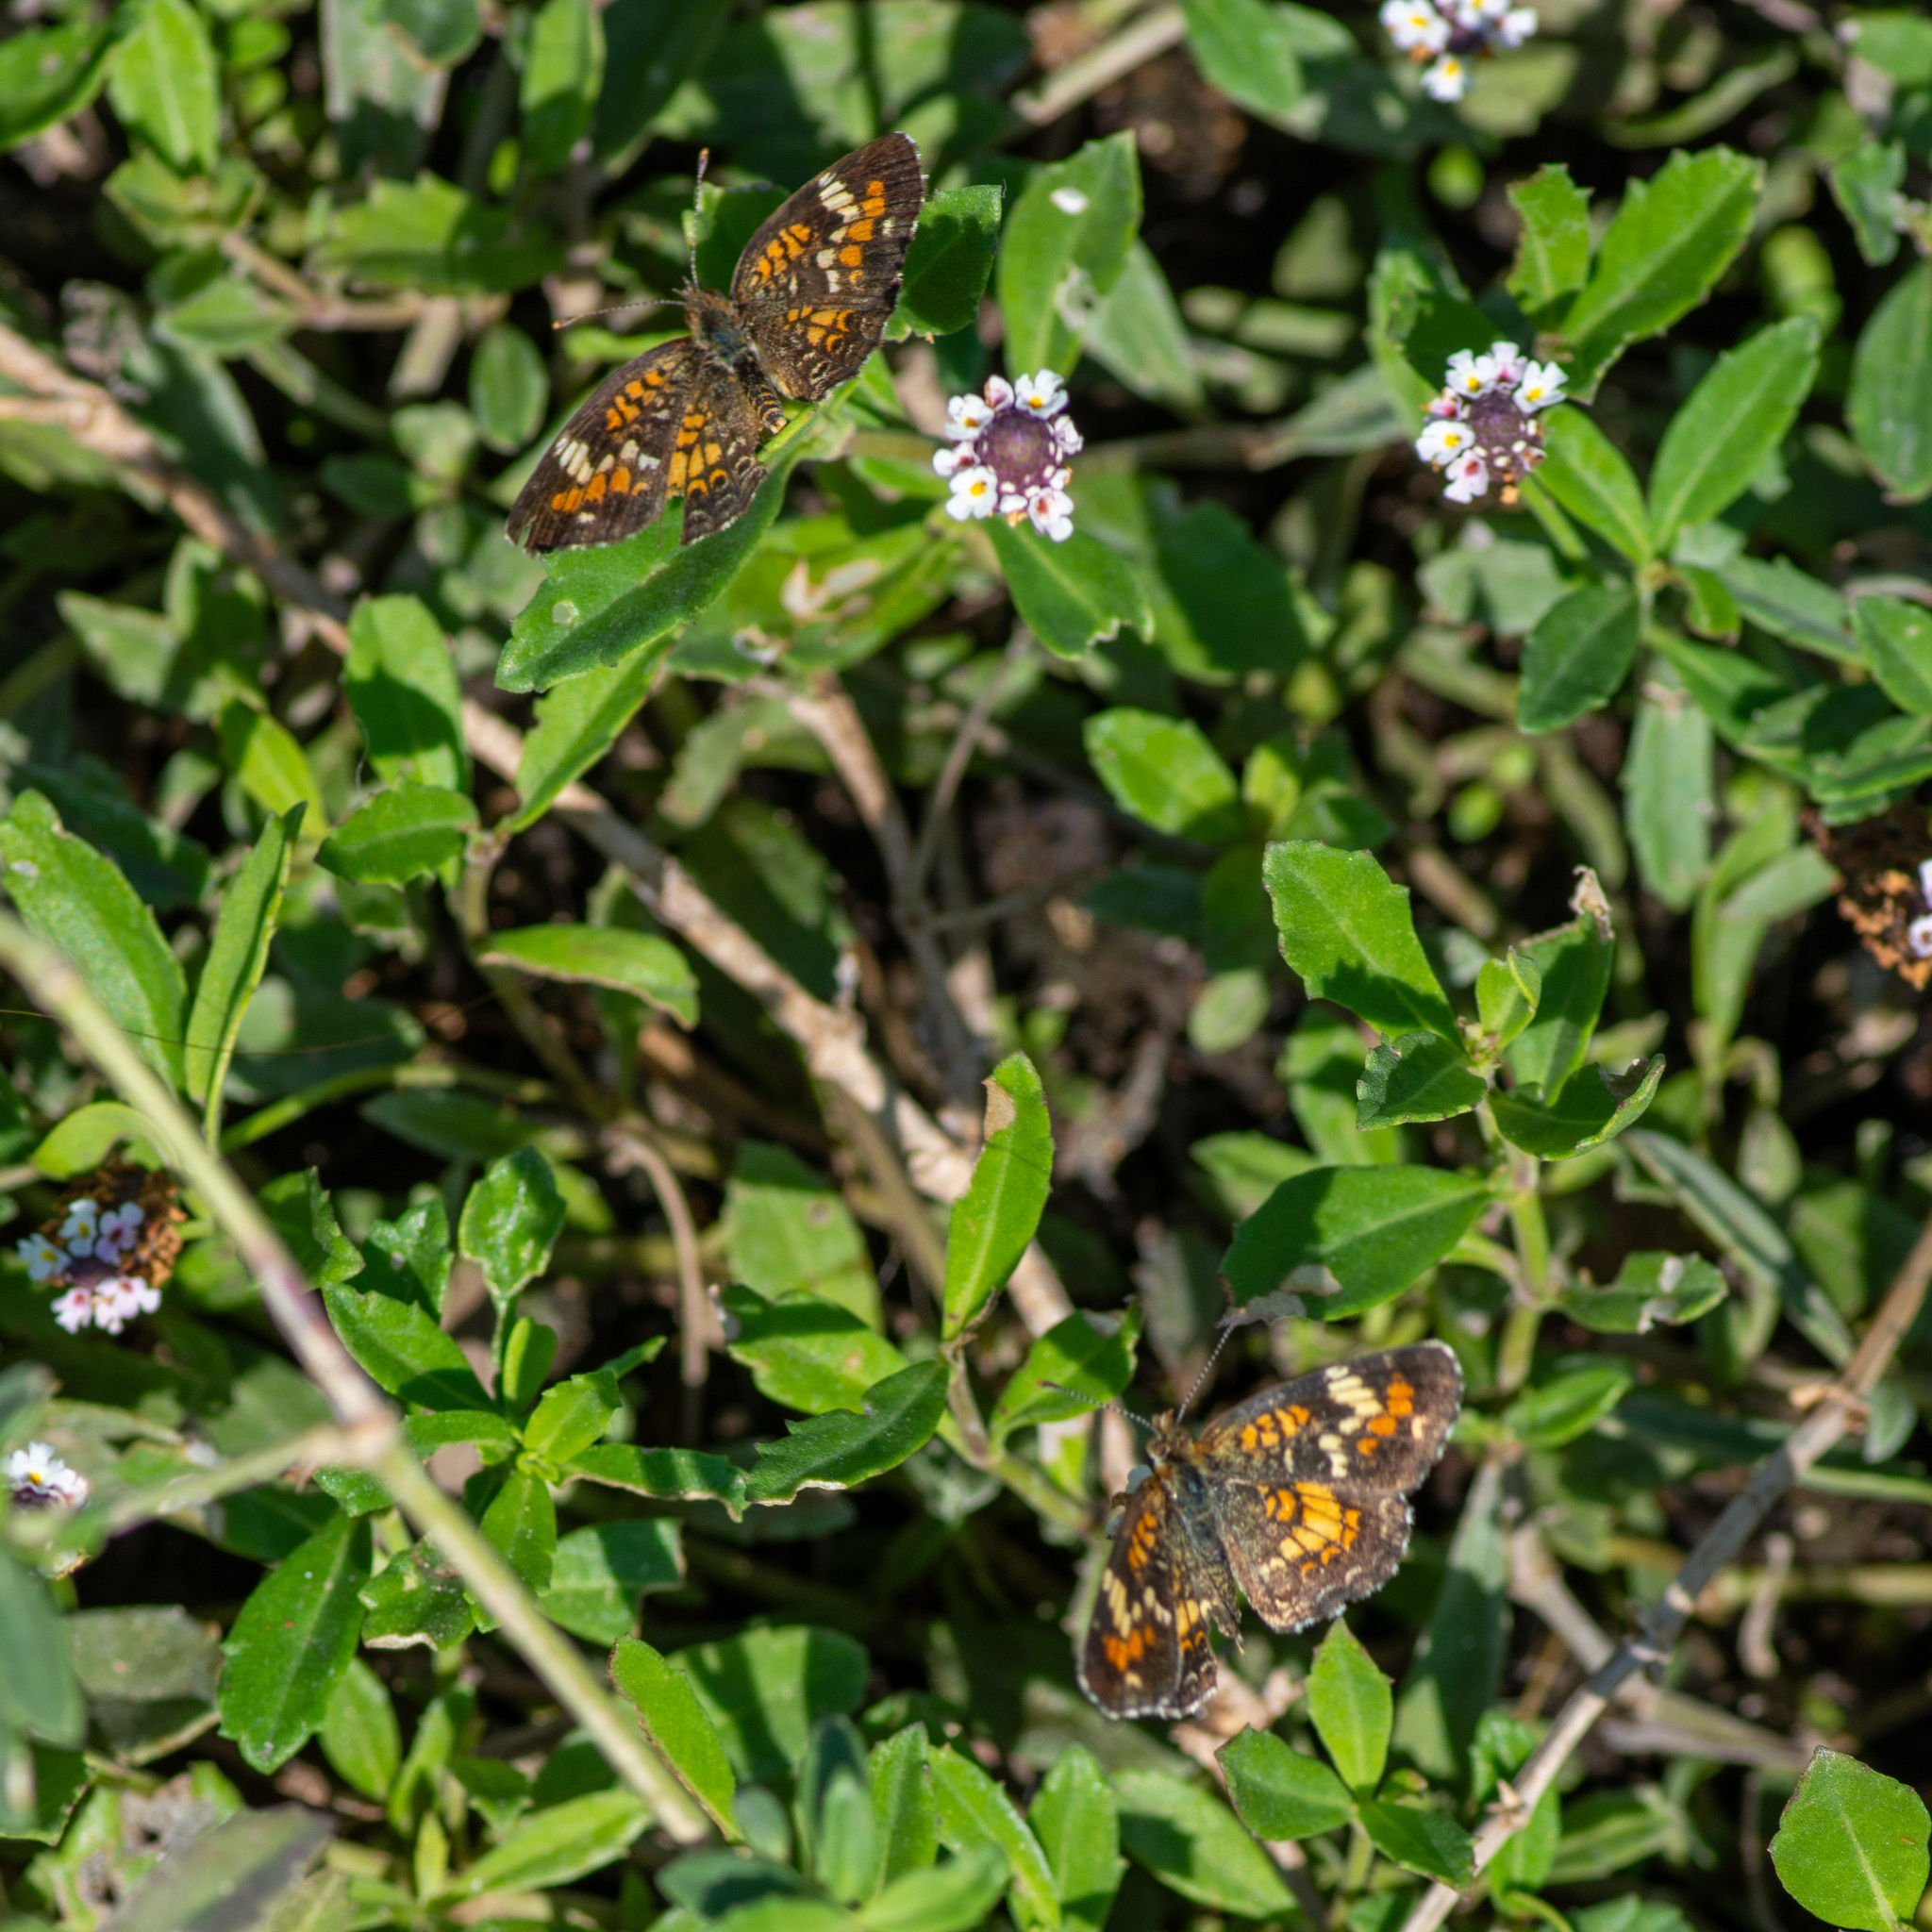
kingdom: Animalia
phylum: Arthropoda
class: Insecta
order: Lepidoptera
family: Nymphalidae
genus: Phyciodes
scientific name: Phyciodes phaon
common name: Phaon crescent
